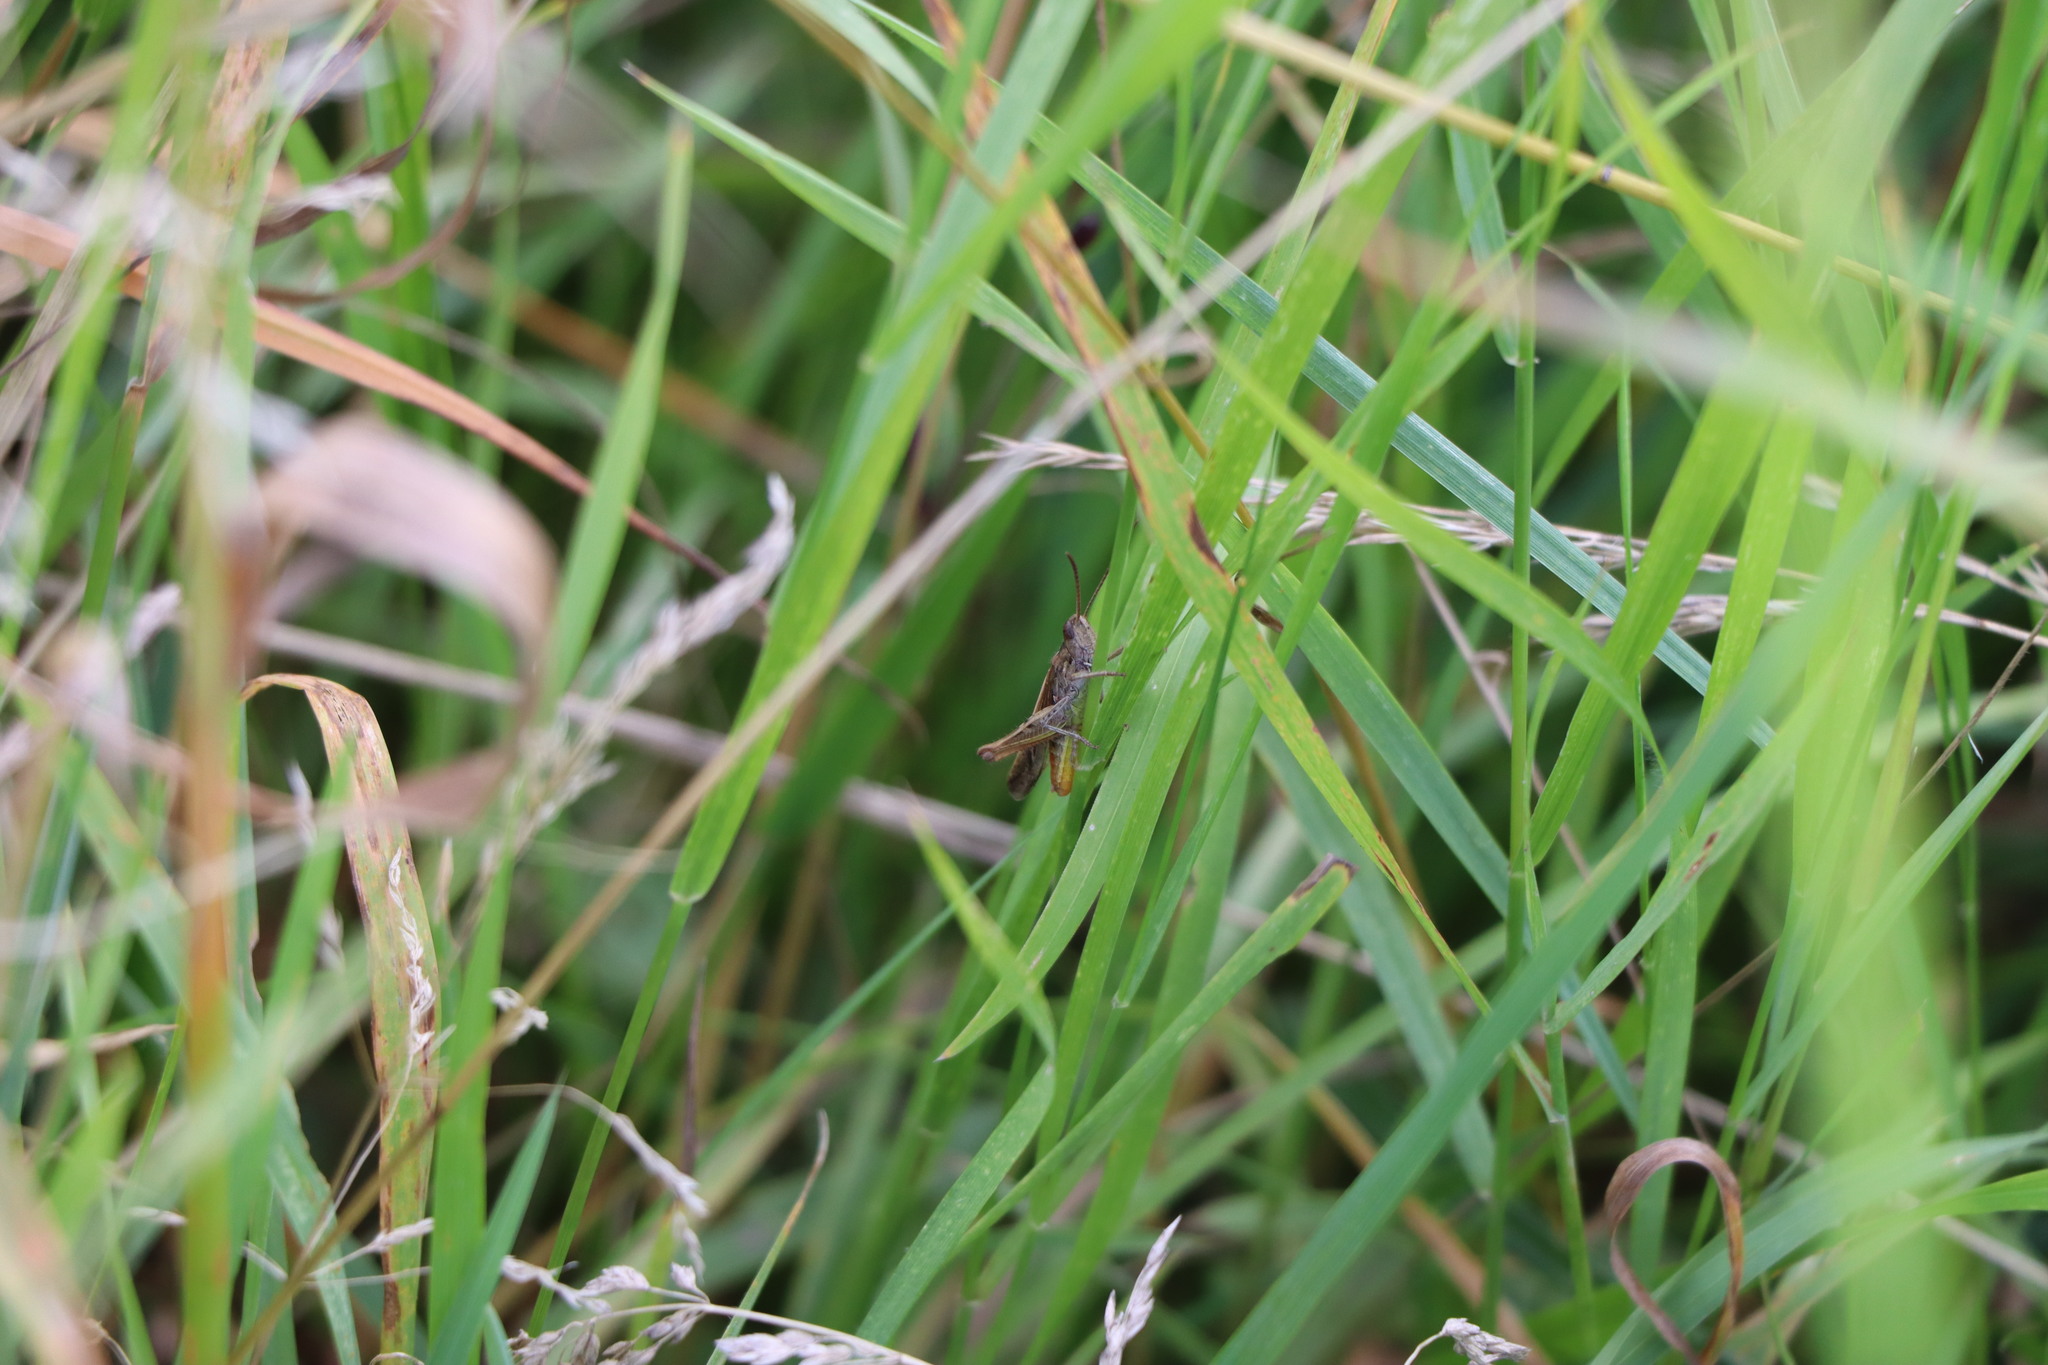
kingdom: Animalia
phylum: Arthropoda
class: Insecta
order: Orthoptera
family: Acrididae
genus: Chorthippus
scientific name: Chorthippus brunneus
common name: Field grasshopper
